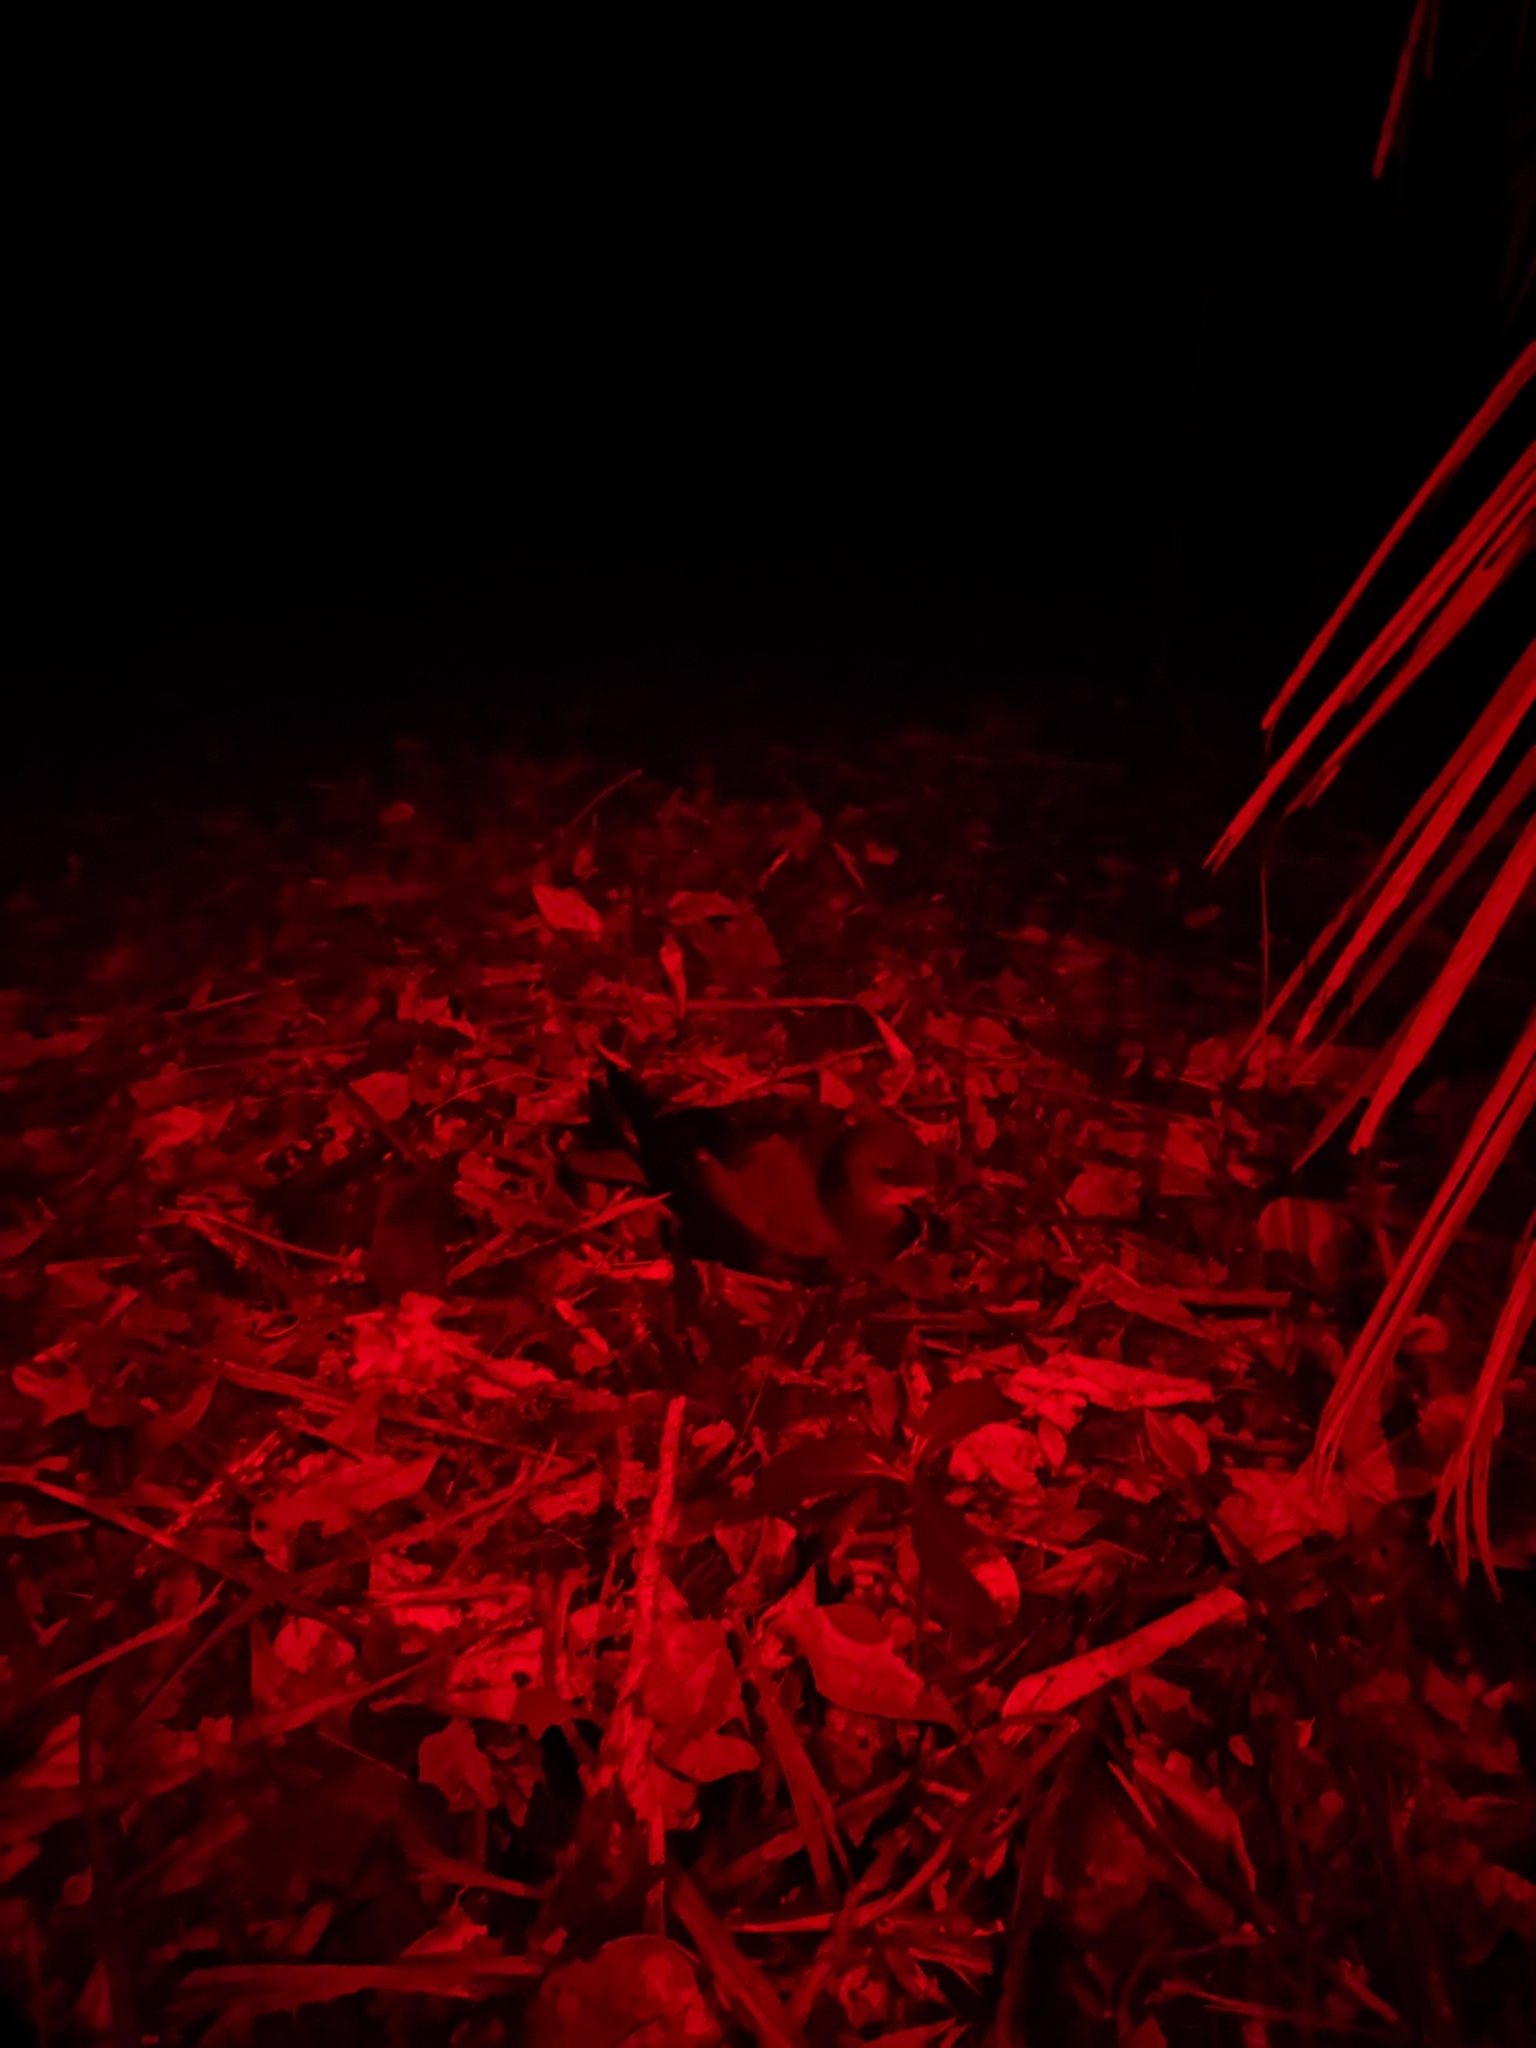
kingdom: Animalia
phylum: Chordata
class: Aves
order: Procellariiformes
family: Procellariidae
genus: Pterodroma
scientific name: Pterodroma macroptera
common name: Great-winged petrel
